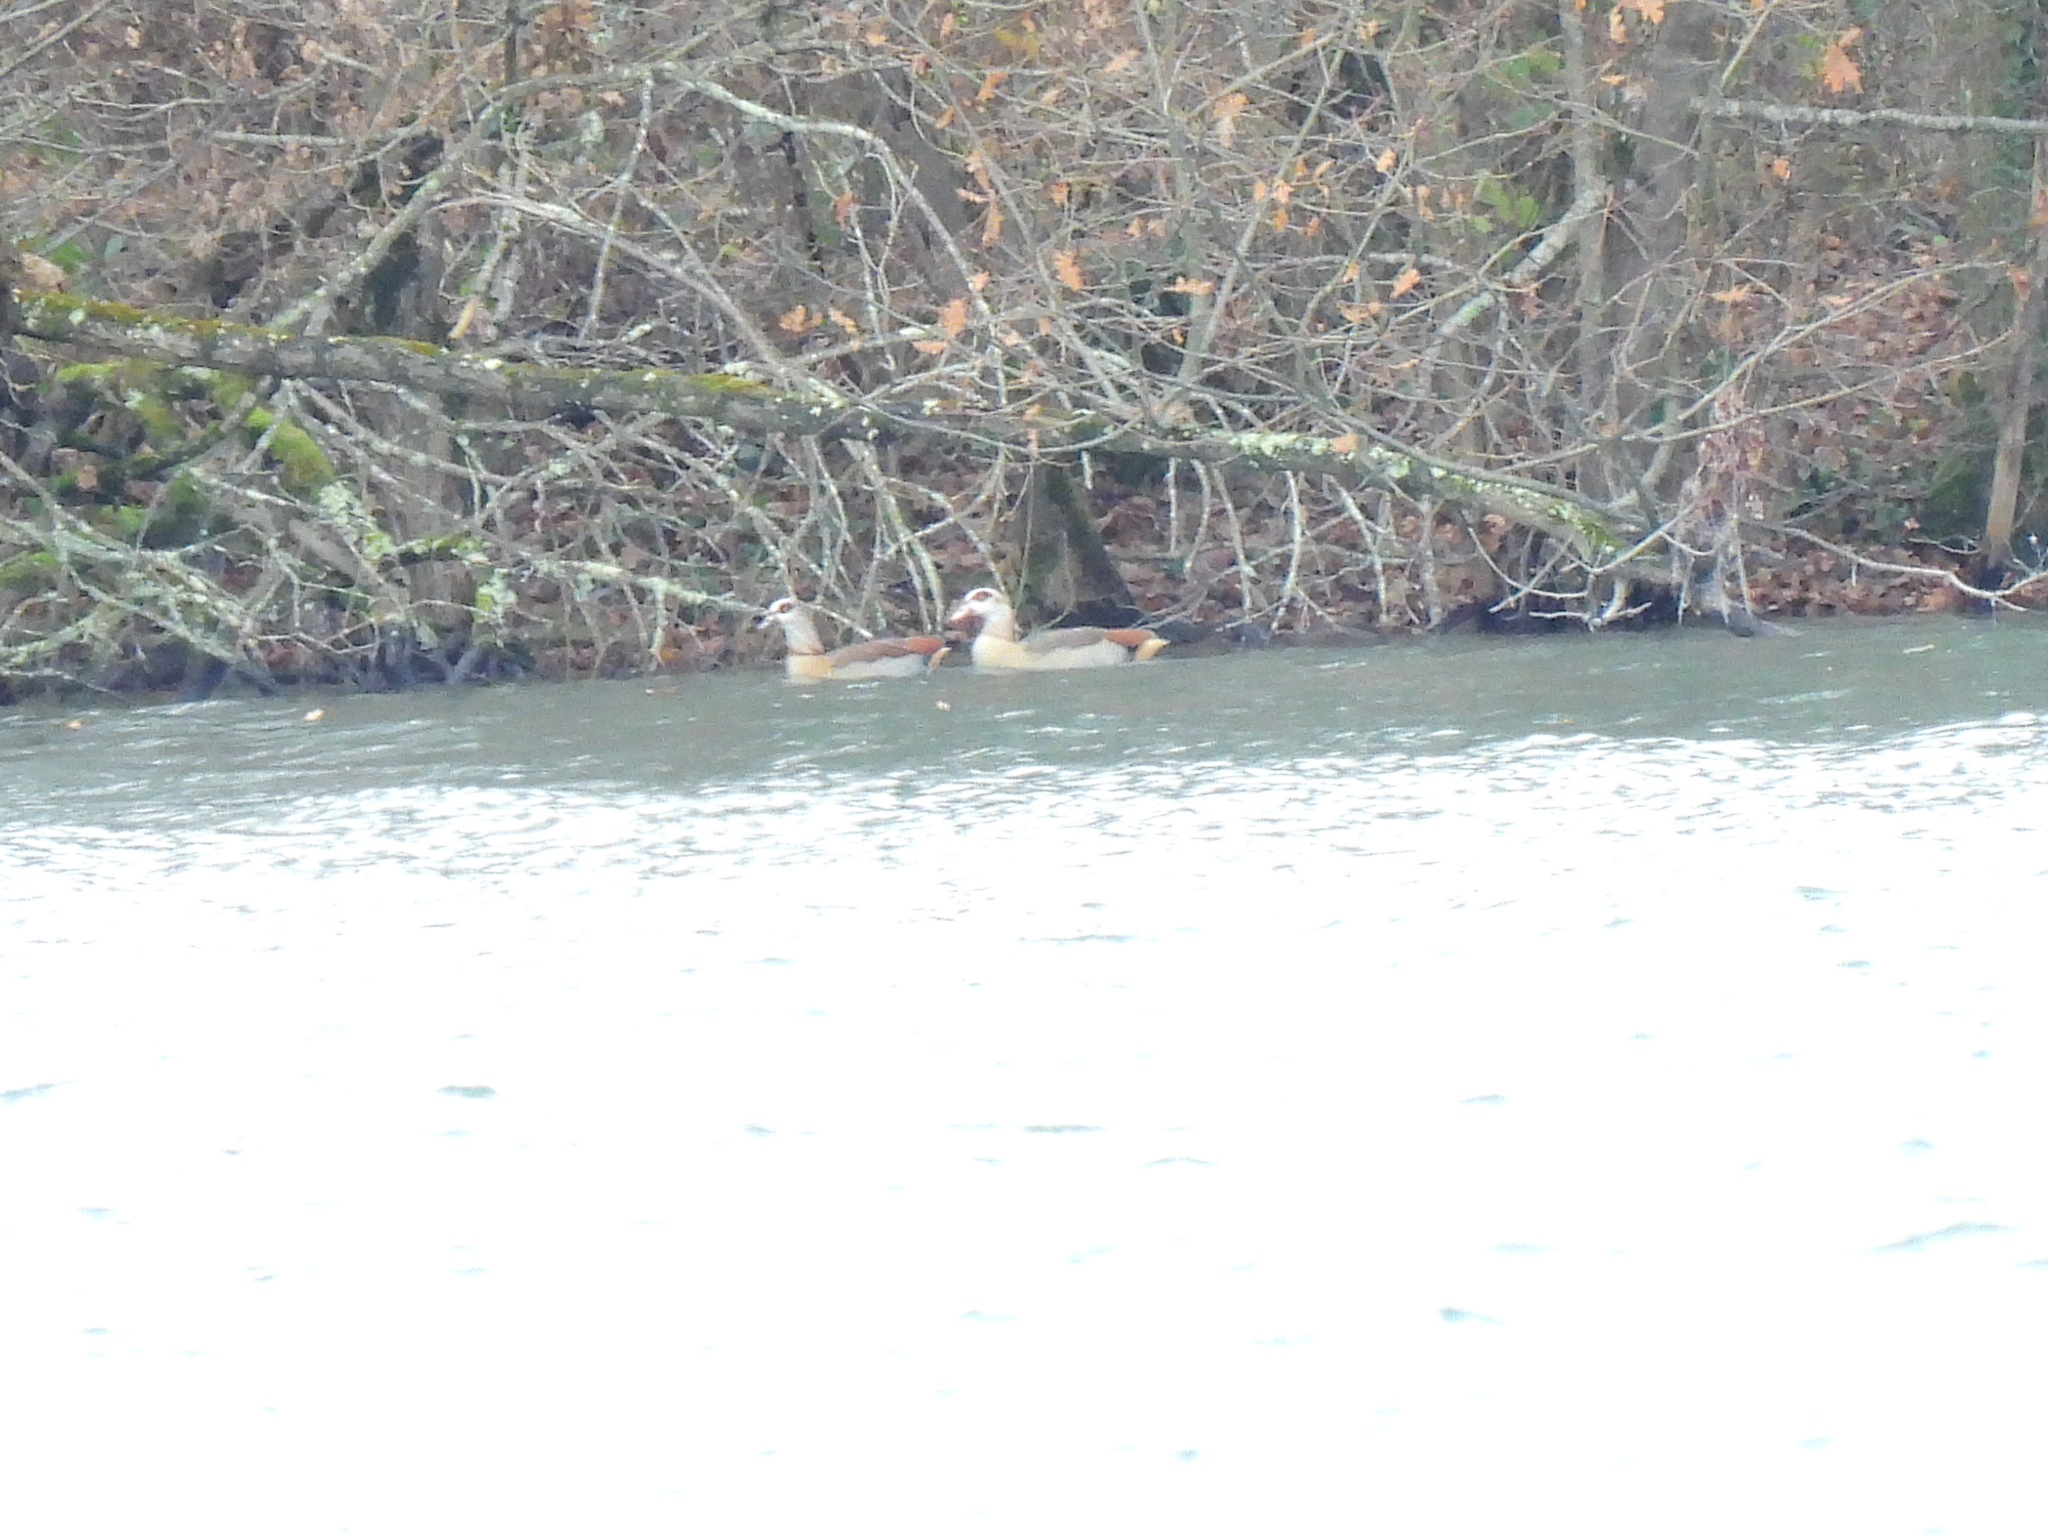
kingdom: Animalia
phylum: Chordata
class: Aves
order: Anseriformes
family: Anatidae
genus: Alopochen
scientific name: Alopochen aegyptiaca
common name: Egyptian goose
